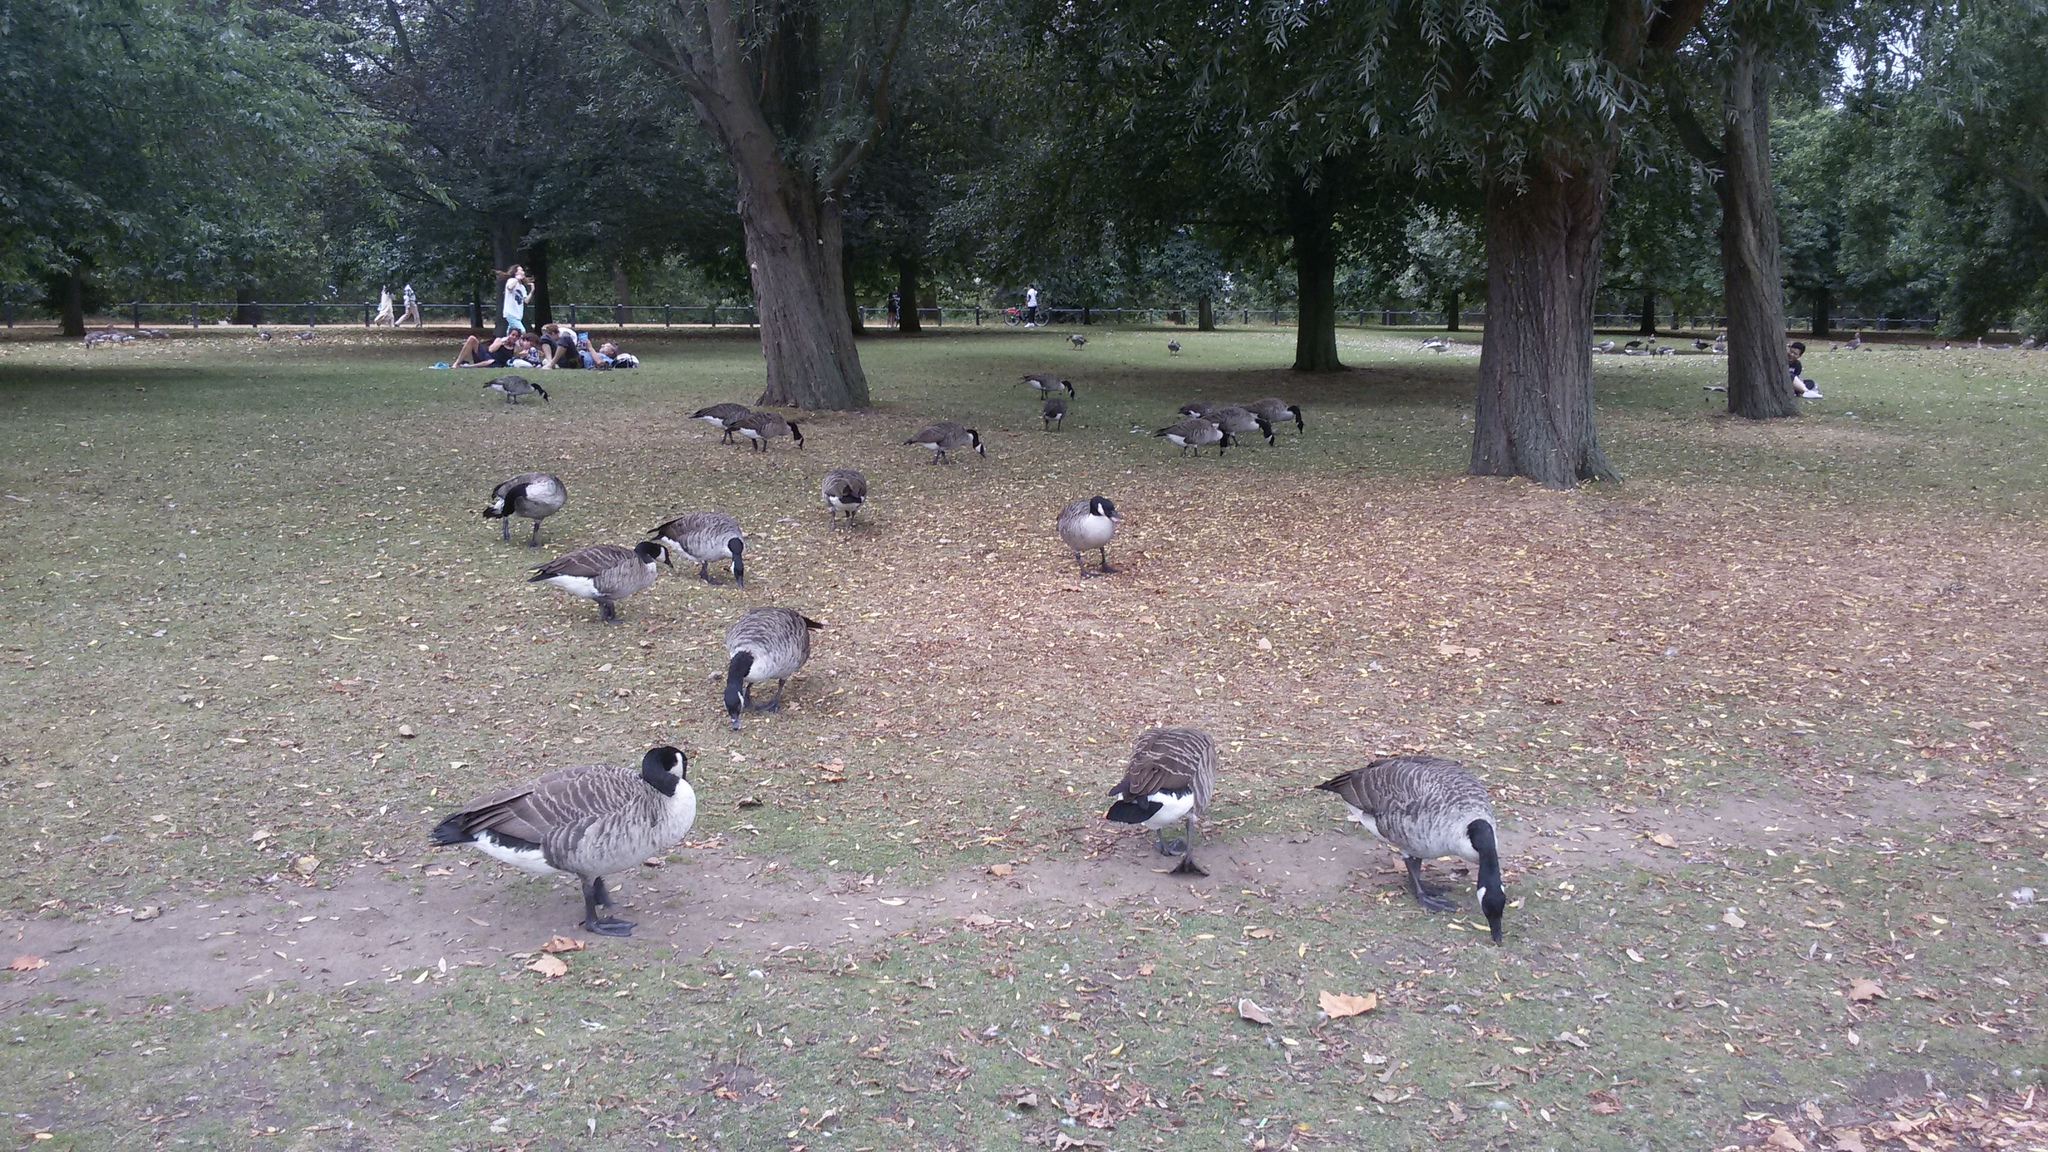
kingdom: Animalia
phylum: Chordata
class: Aves
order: Anseriformes
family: Anatidae
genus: Branta
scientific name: Branta canadensis
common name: Canada goose
